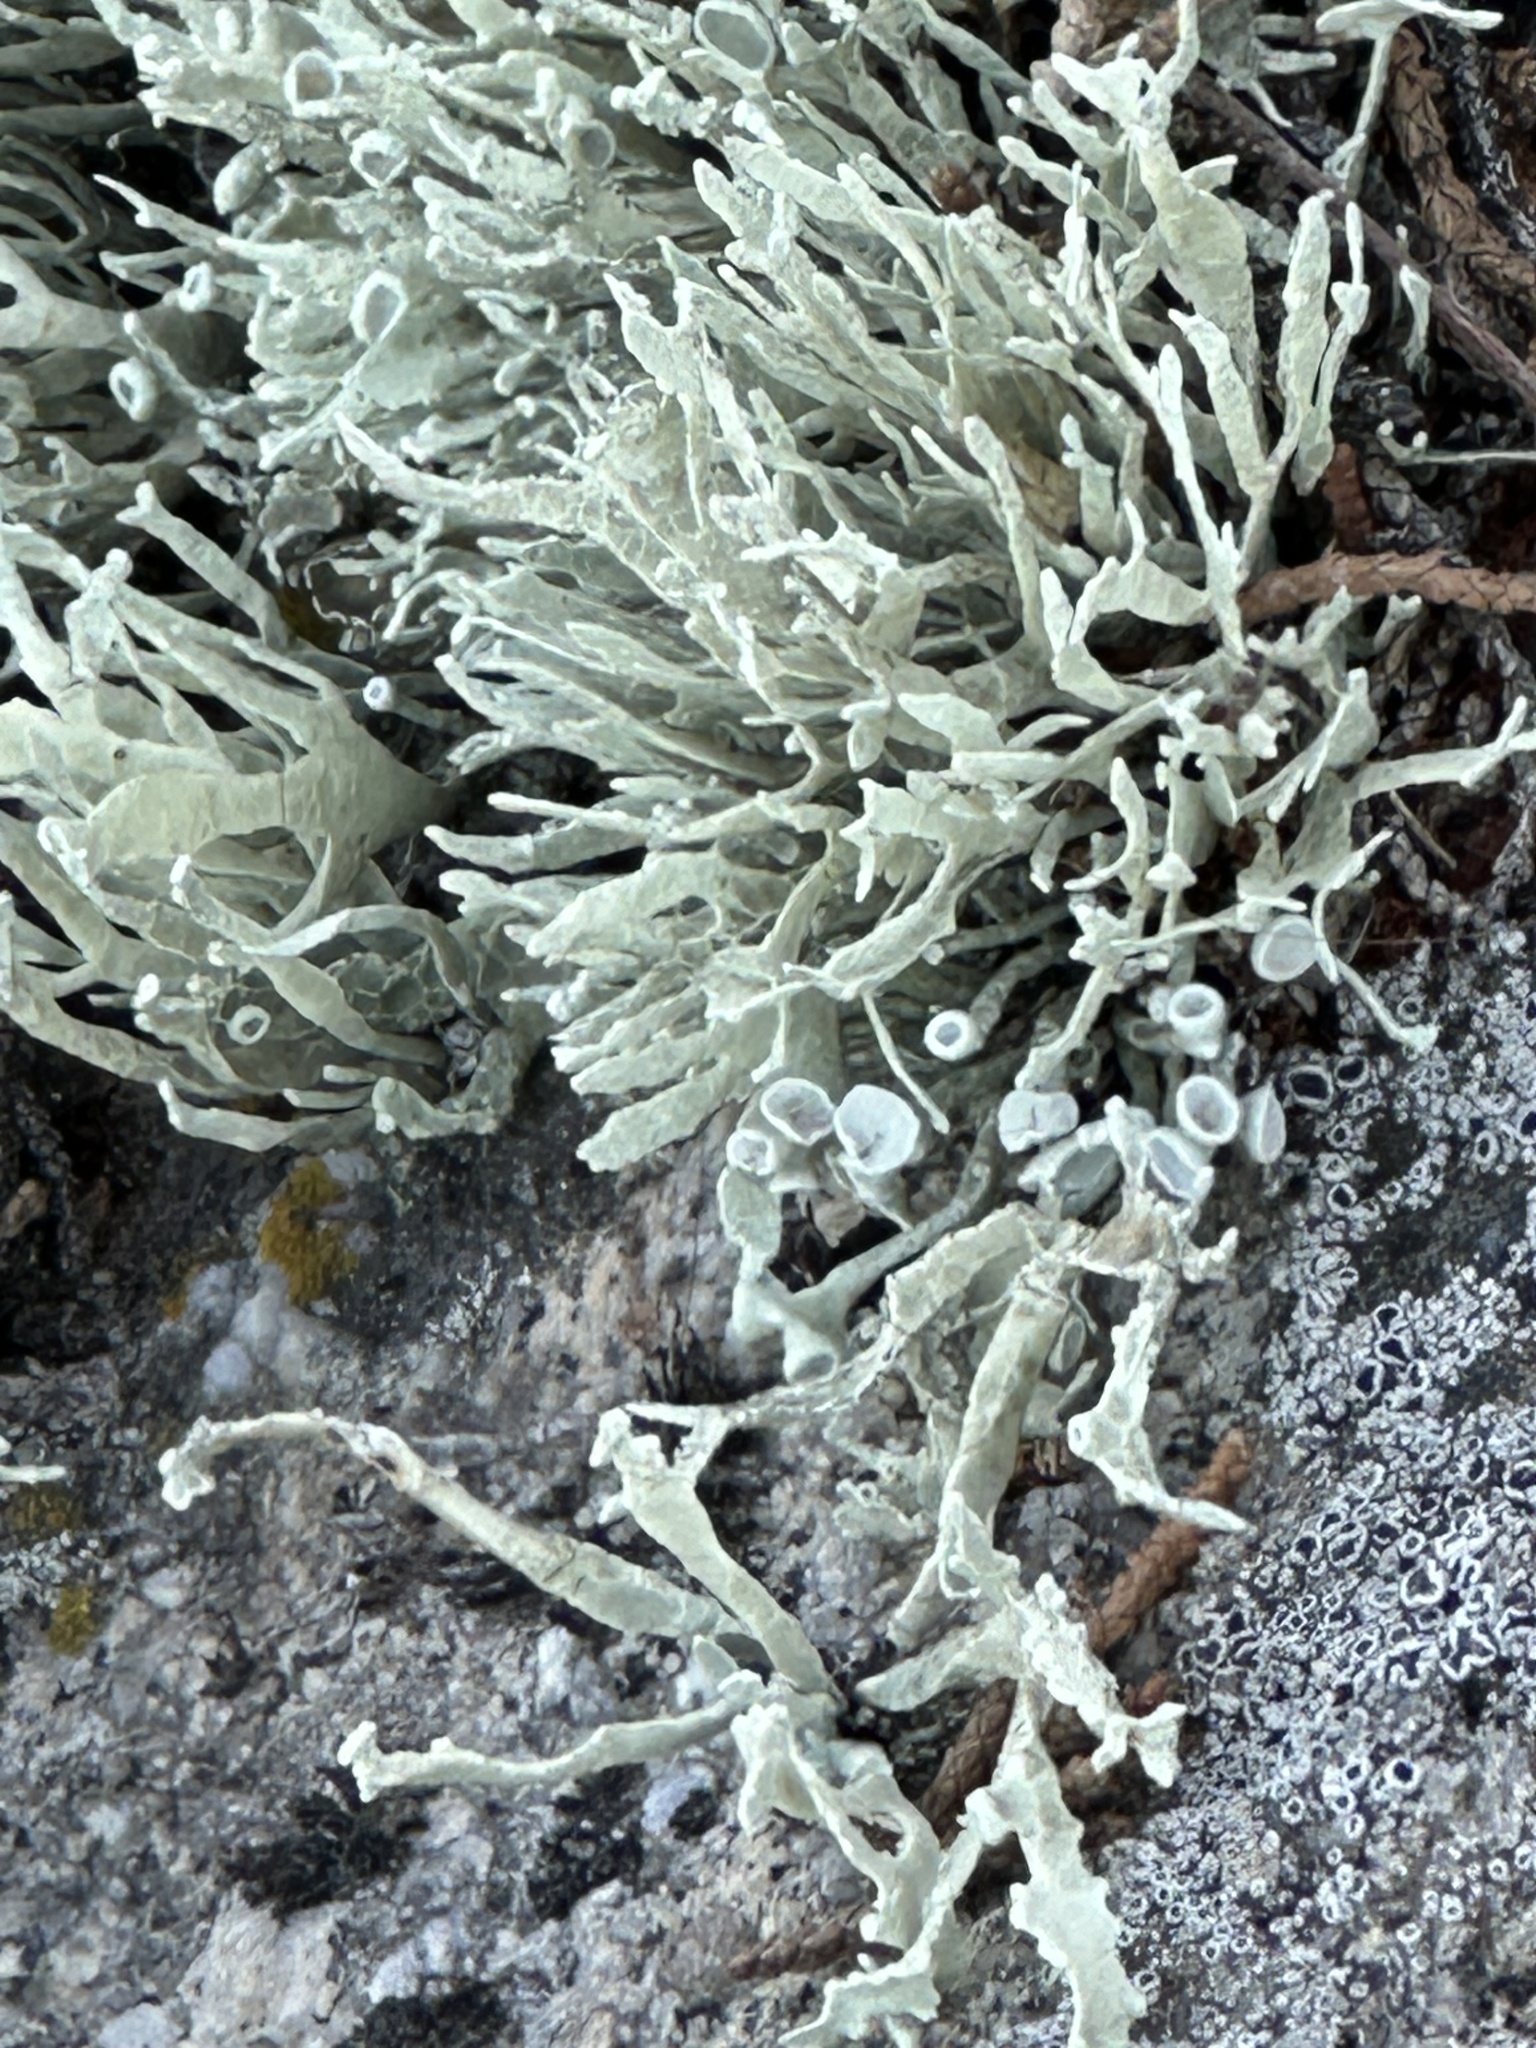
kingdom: Fungi
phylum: Ascomycota
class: Lecanoromycetes
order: Lecanorales
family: Ramalinaceae
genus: Niebla
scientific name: Niebla homalea
